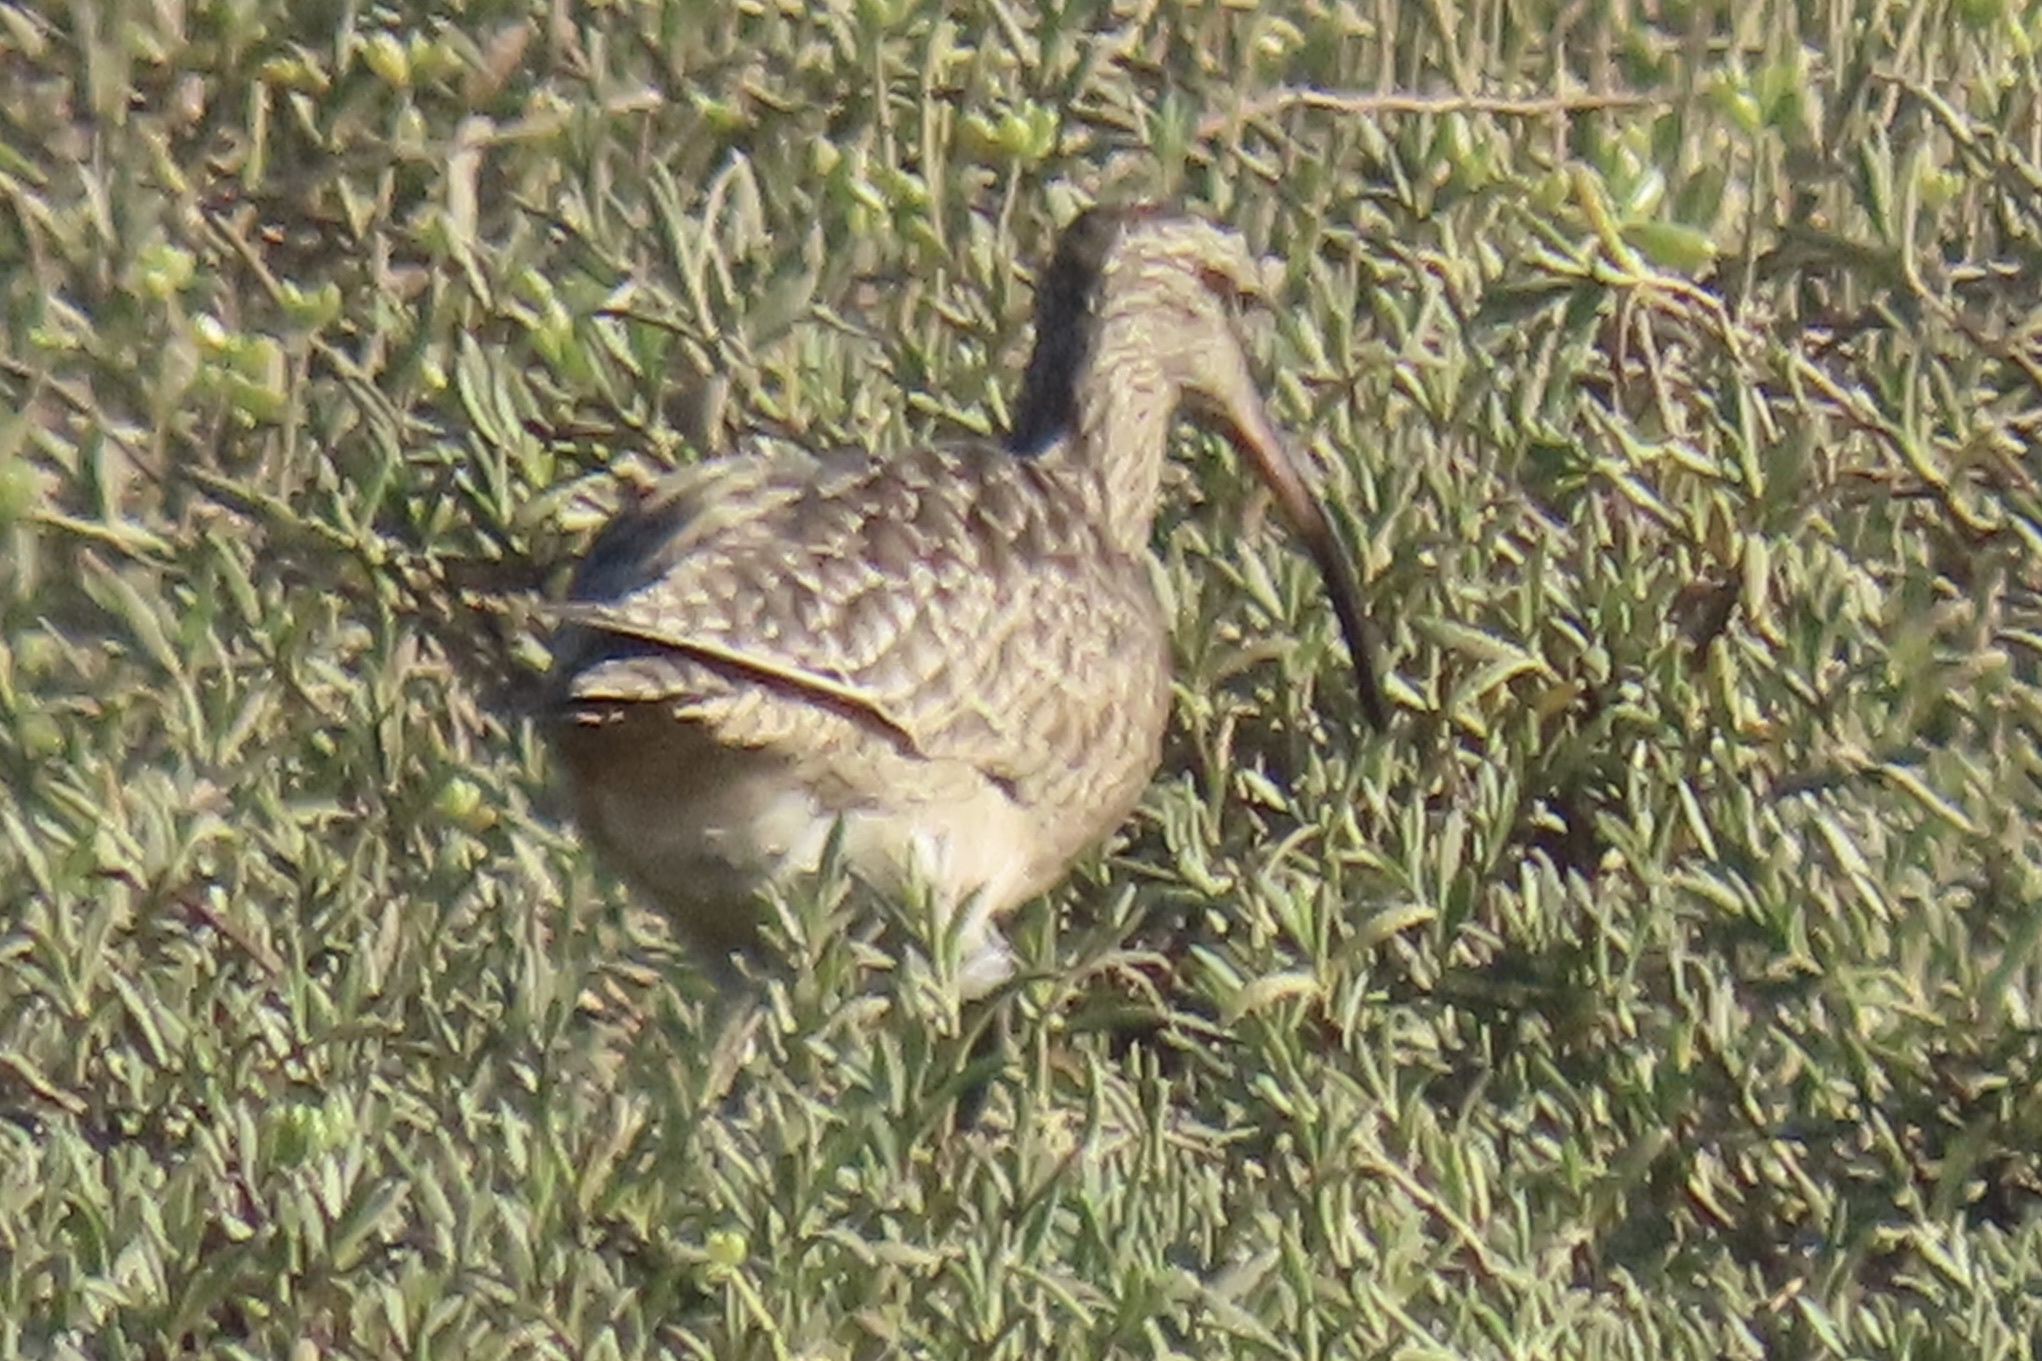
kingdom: Animalia
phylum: Chordata
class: Aves
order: Charadriiformes
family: Scolopacidae
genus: Numenius
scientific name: Numenius phaeopus
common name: Whimbrel
